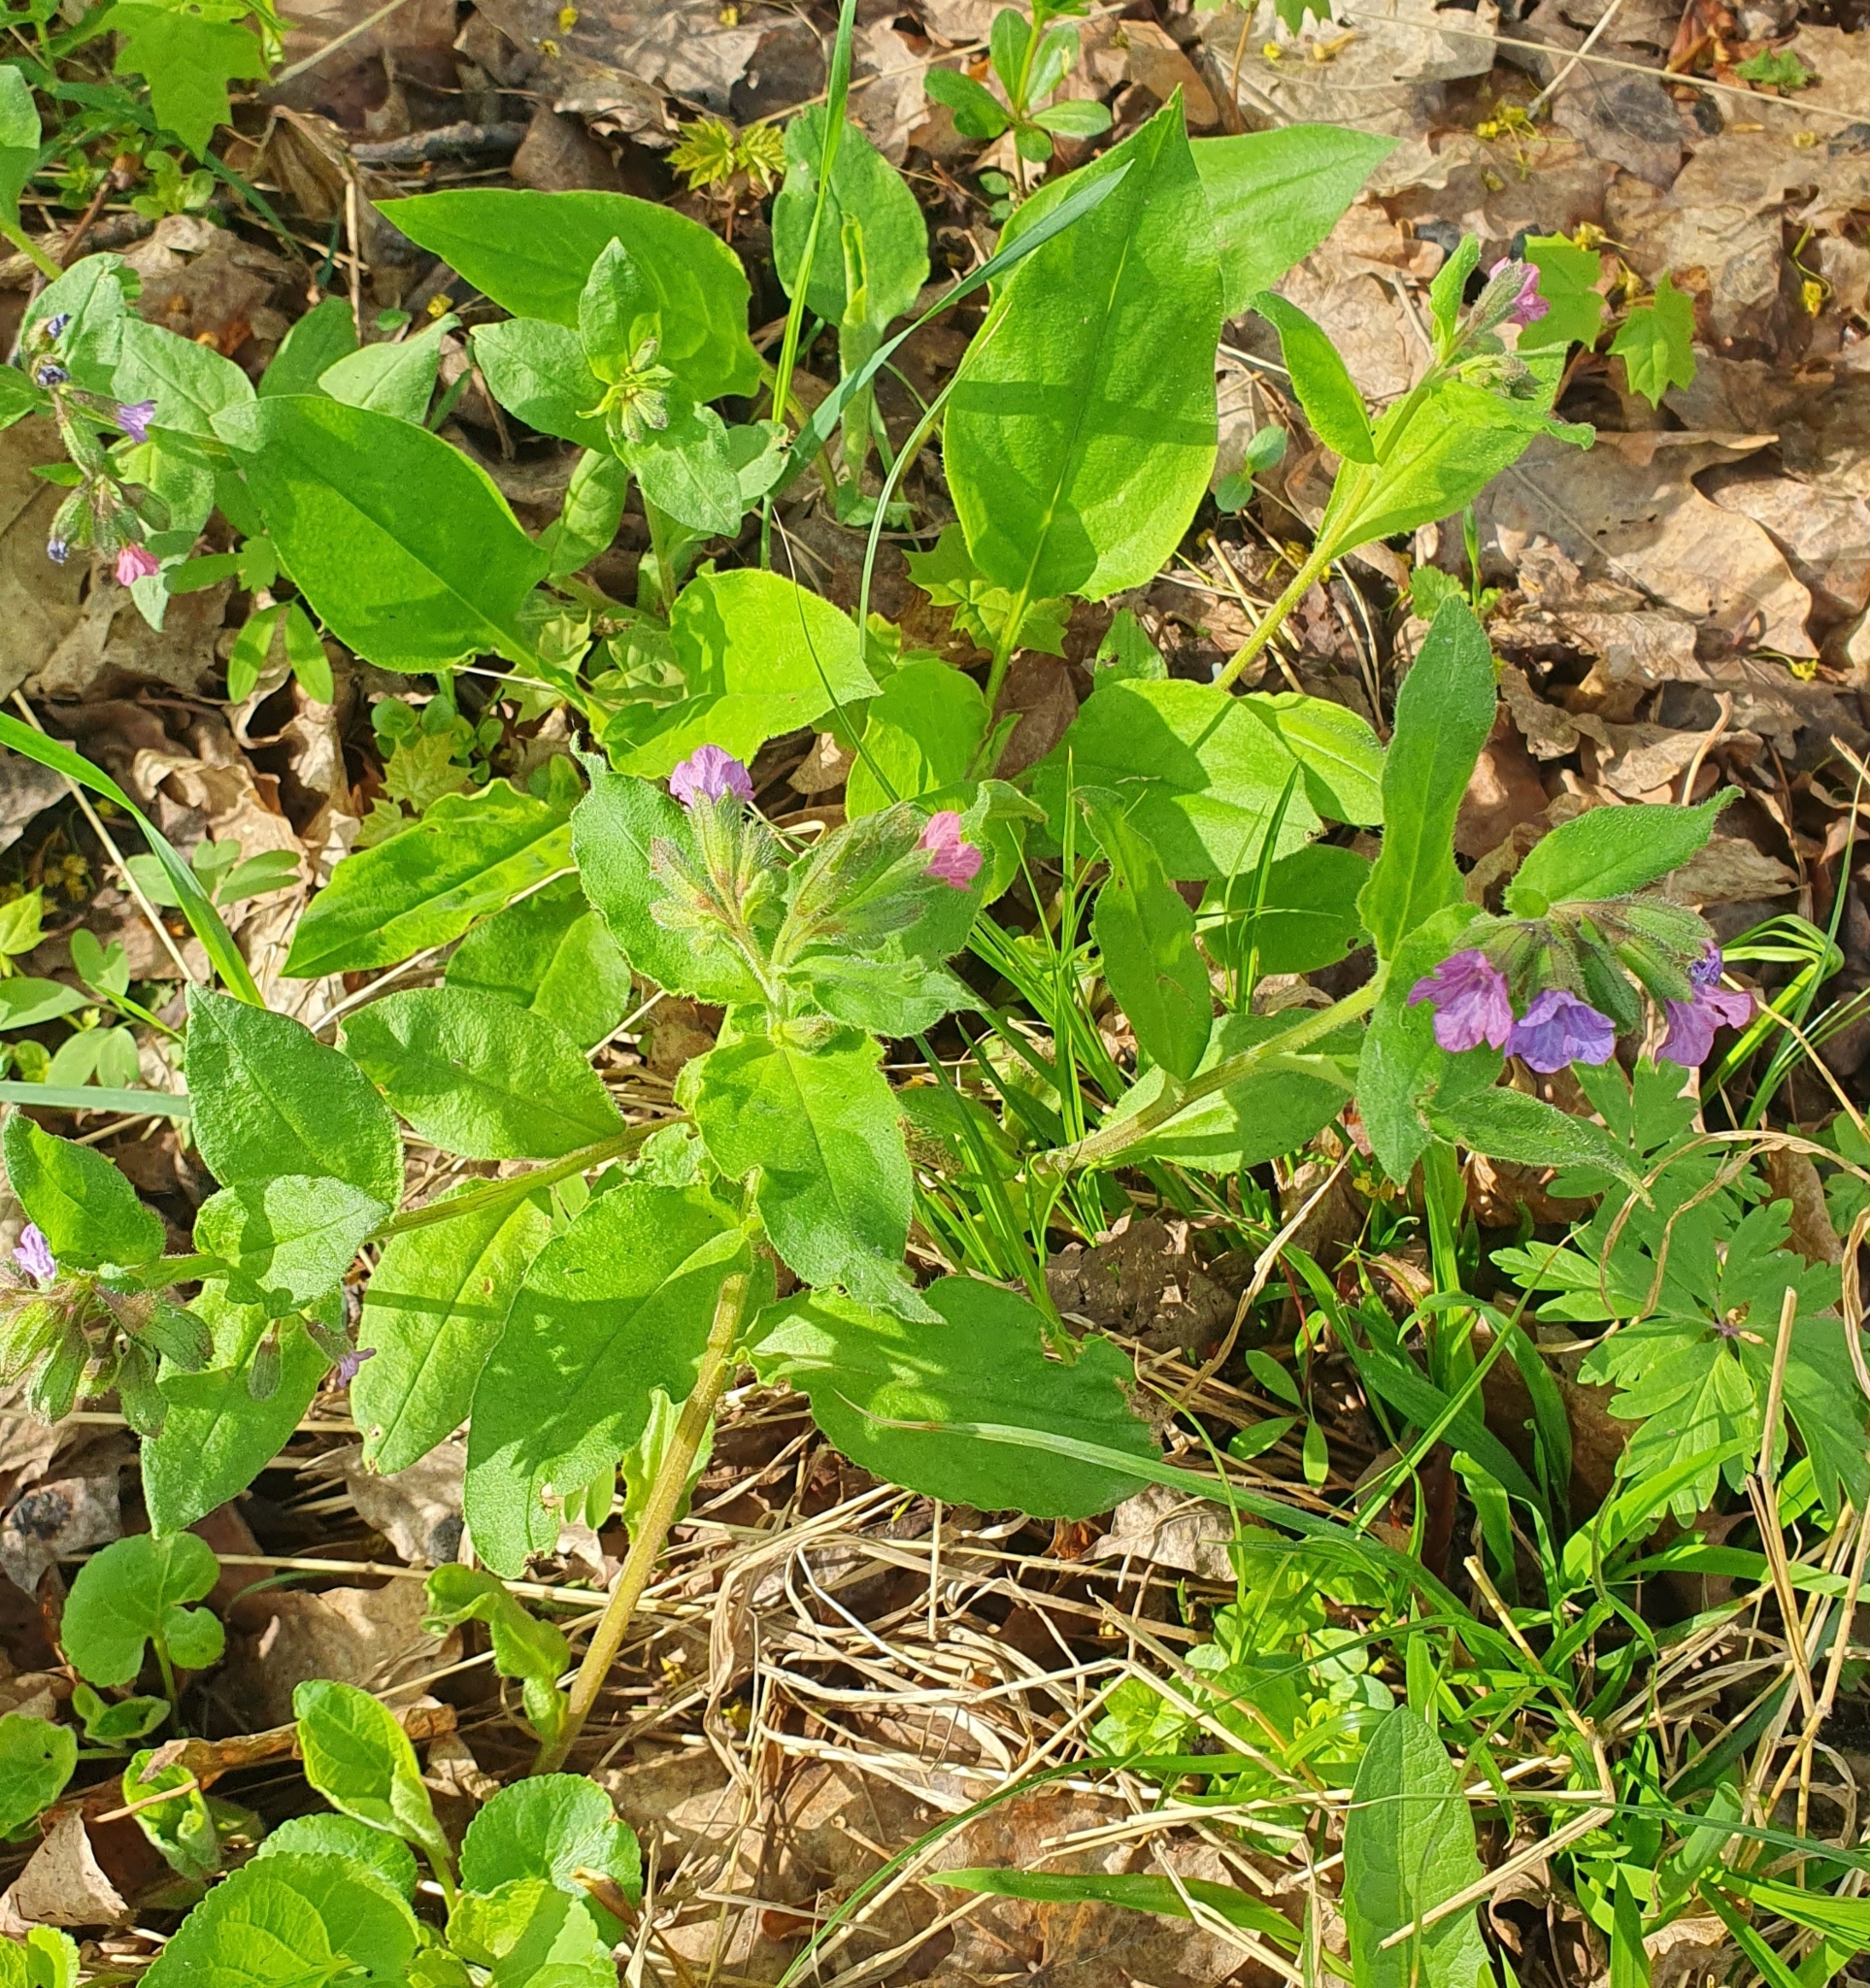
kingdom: Plantae
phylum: Tracheophyta
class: Magnoliopsida
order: Boraginales
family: Boraginaceae
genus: Pulmonaria
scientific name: Pulmonaria obscura
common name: Suffolk lungwort
